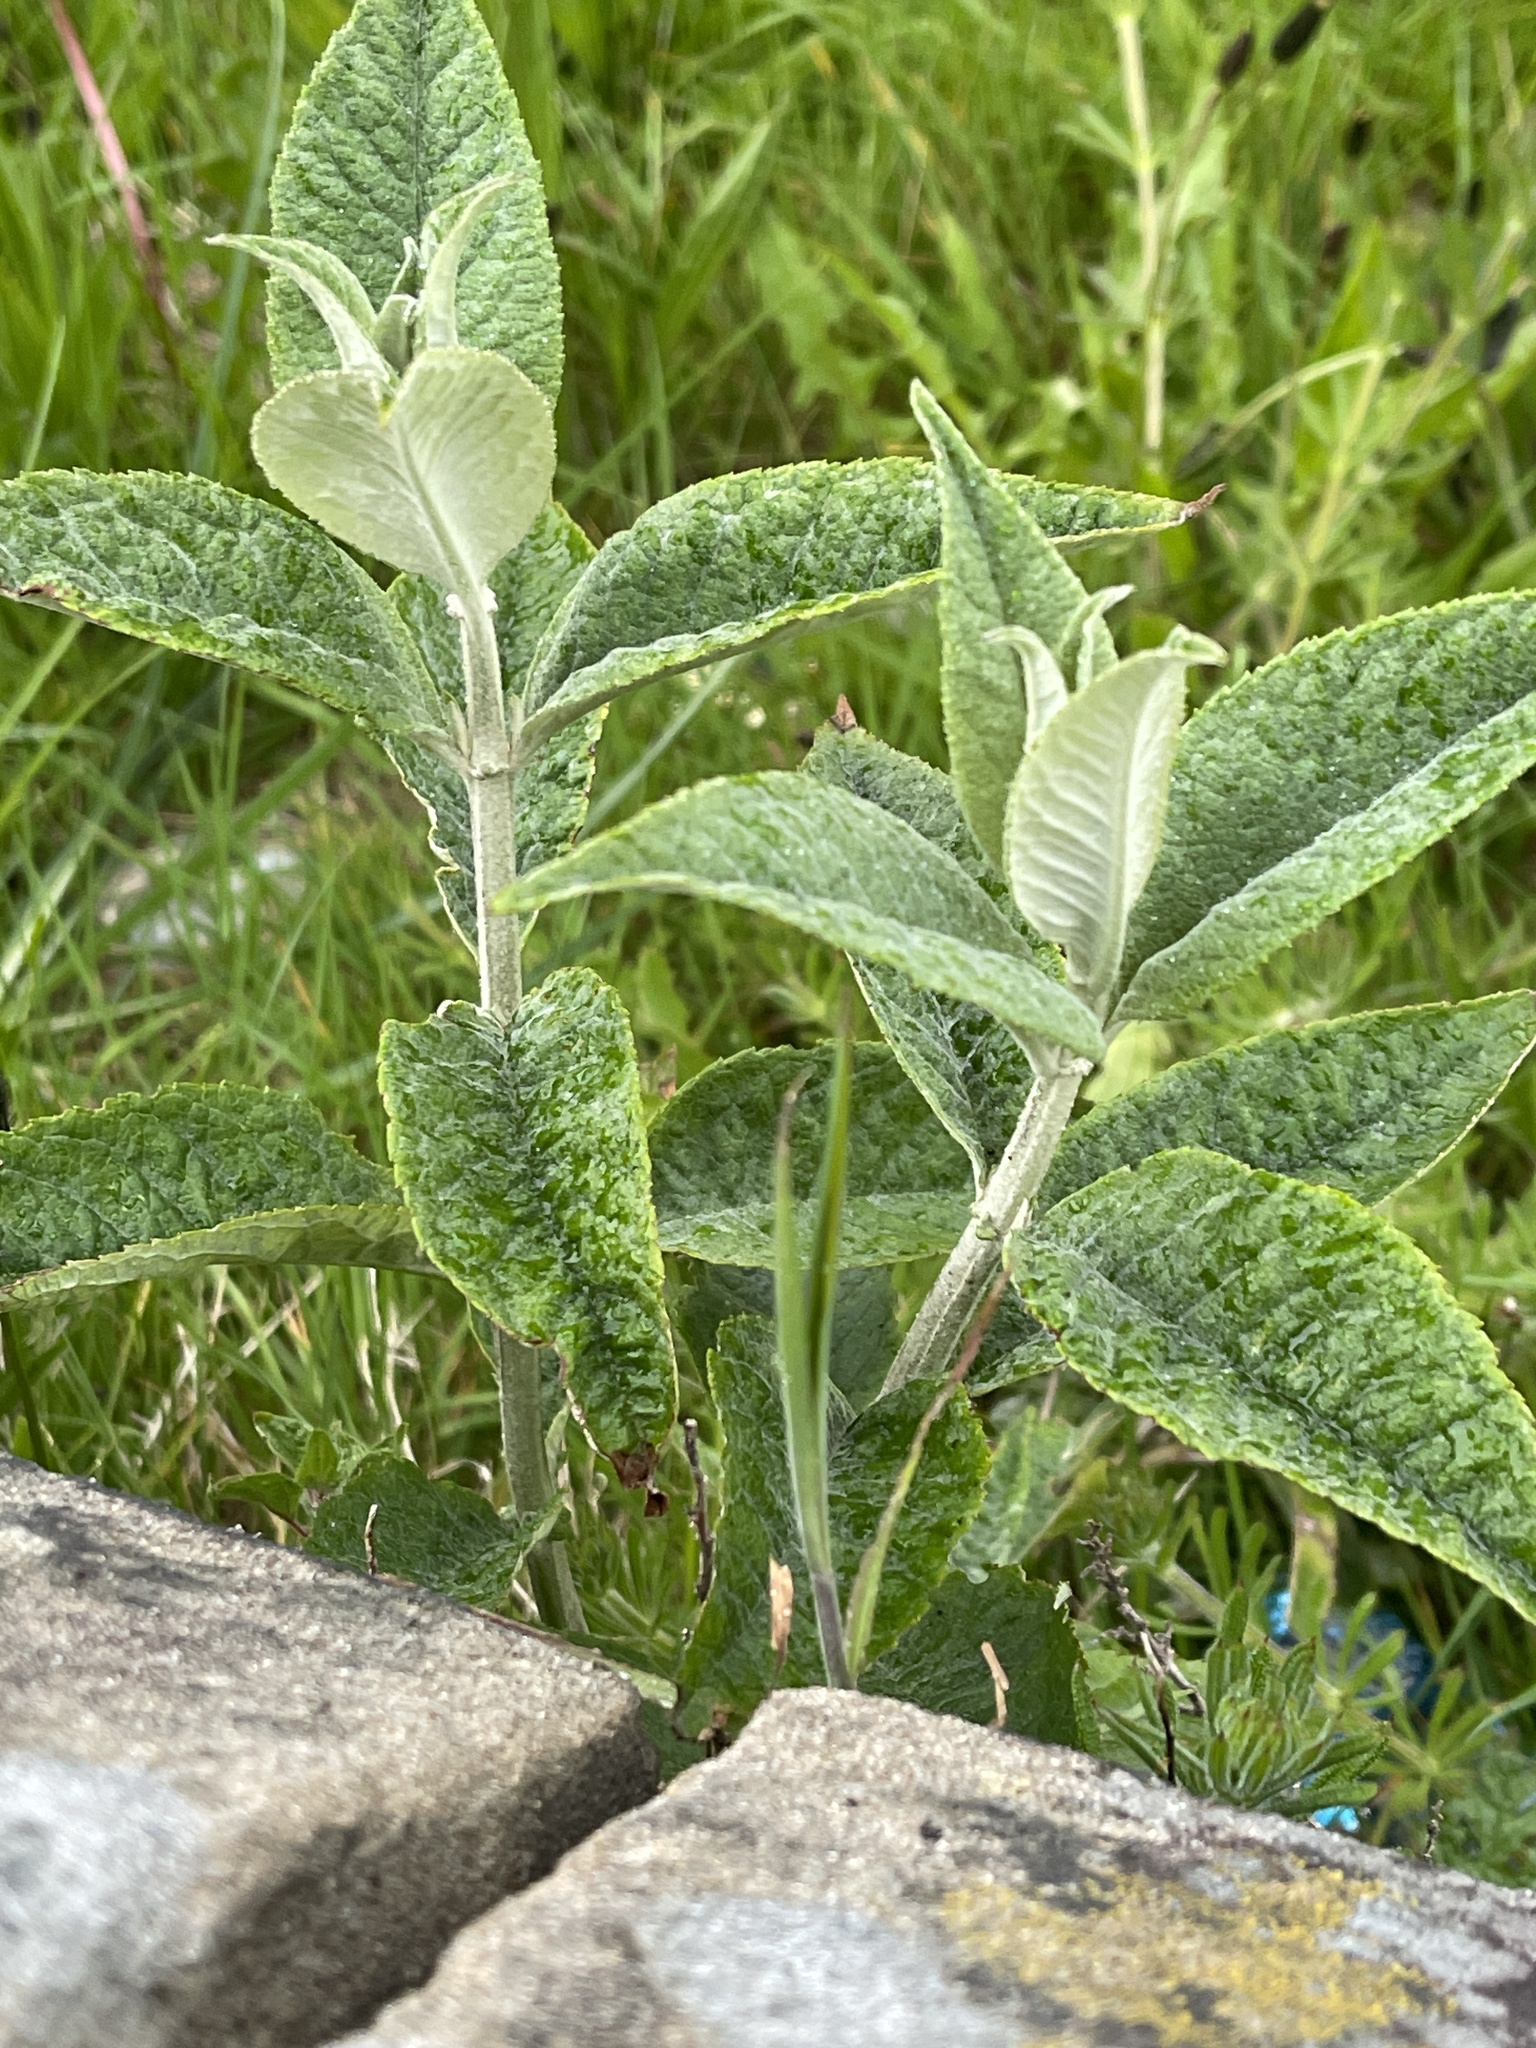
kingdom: Plantae
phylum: Tracheophyta
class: Magnoliopsida
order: Lamiales
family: Scrophulariaceae
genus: Buddleja
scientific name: Buddleja davidii
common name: Butterfly-bush
